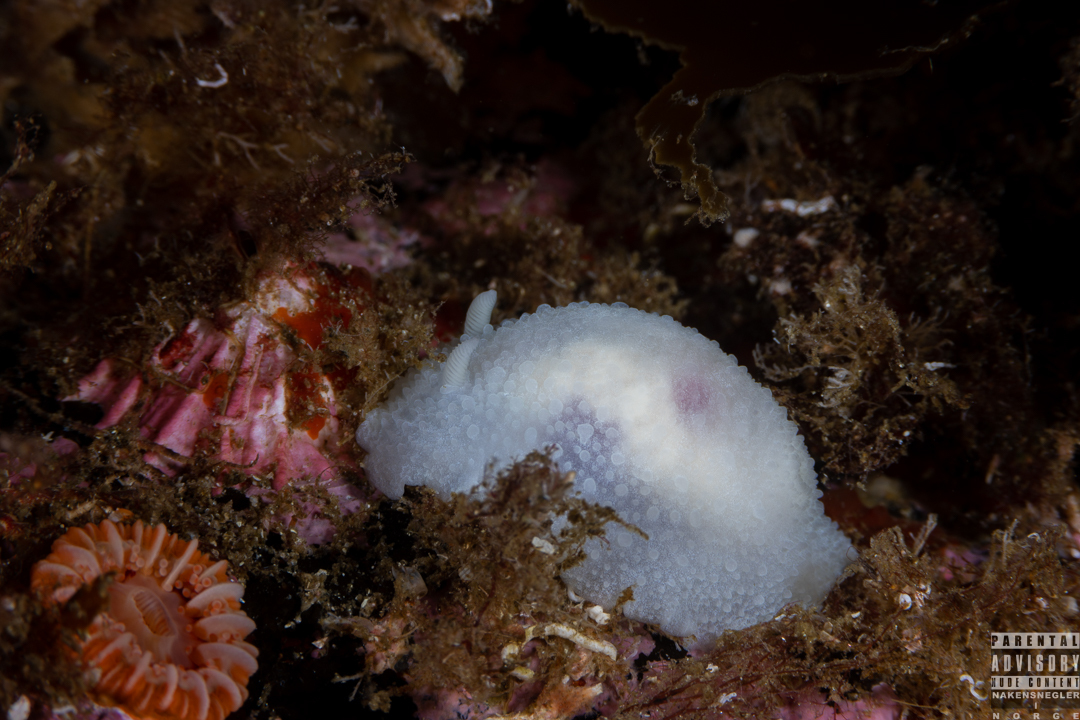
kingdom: Animalia
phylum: Mollusca
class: Gastropoda
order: Nudibranchia
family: Cadlinidae
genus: Aldisa
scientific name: Aldisa zetlandica
